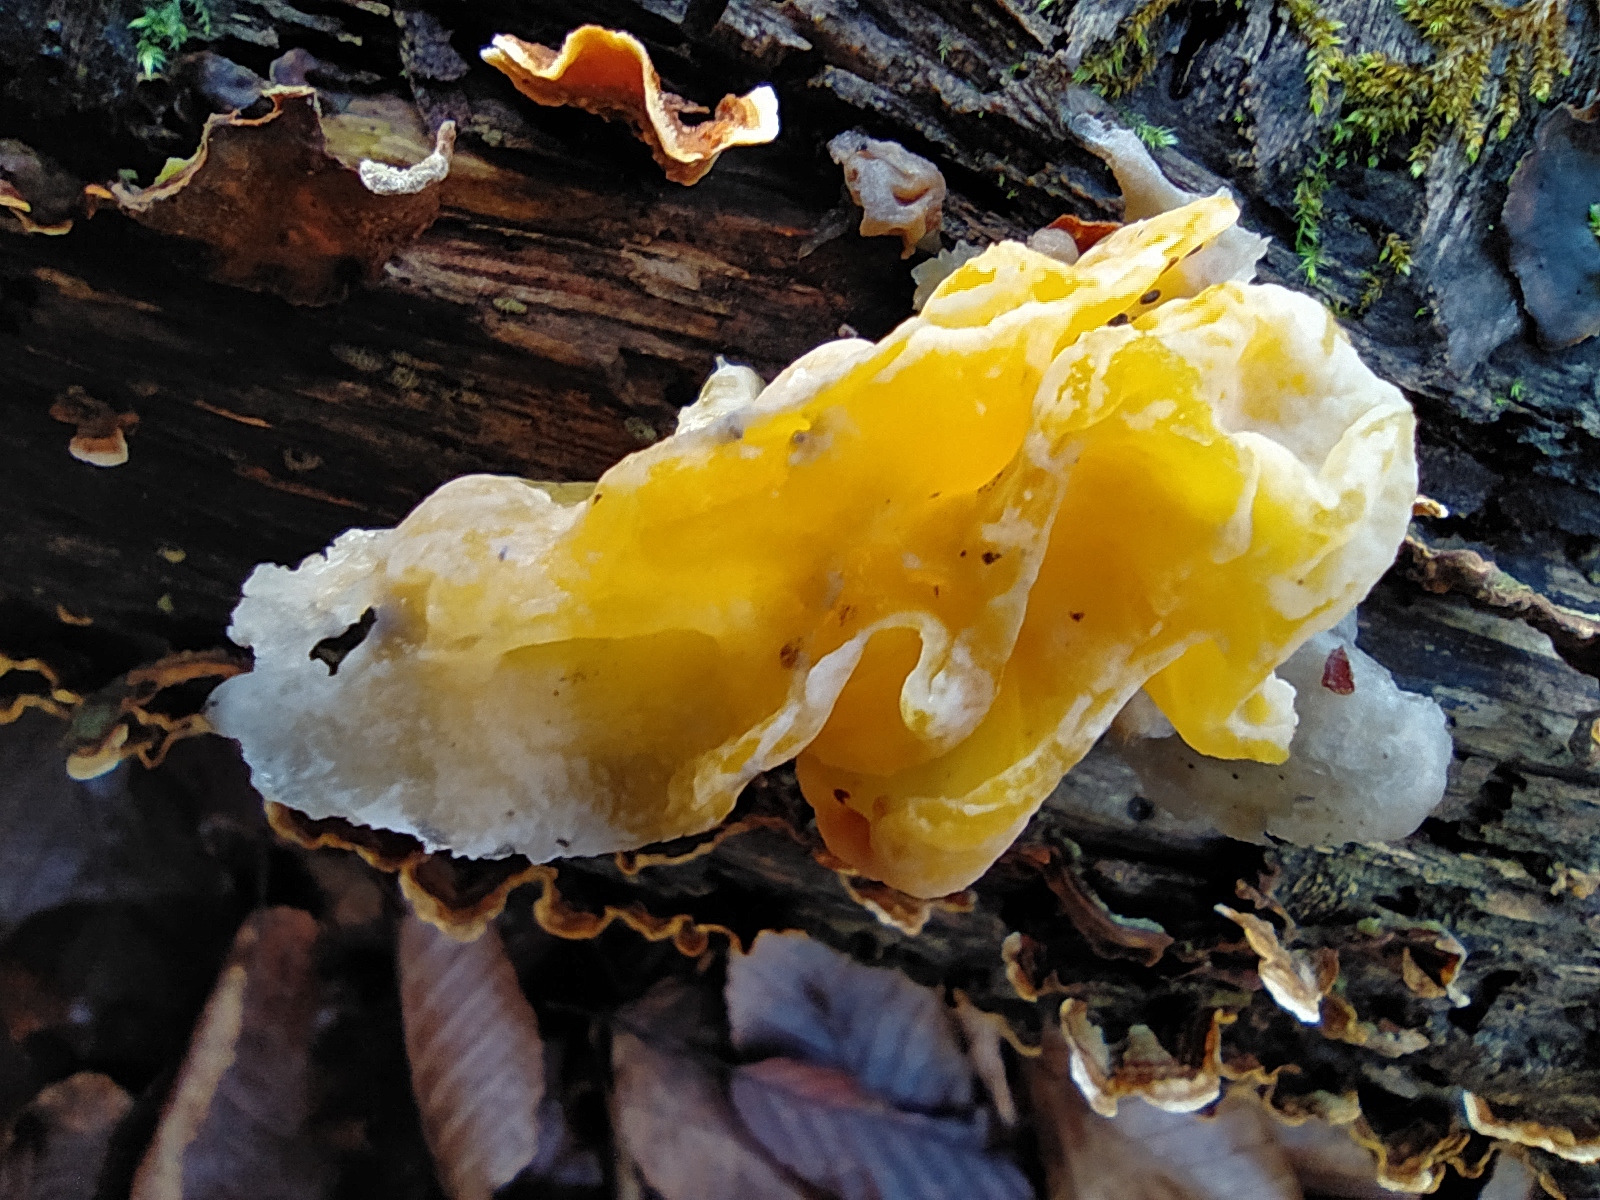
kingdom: Fungi
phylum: Basidiomycota
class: Tremellomycetes
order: Tremellales
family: Naemateliaceae
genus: Naematelia
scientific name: Naematelia aurantia
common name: Golden ear
